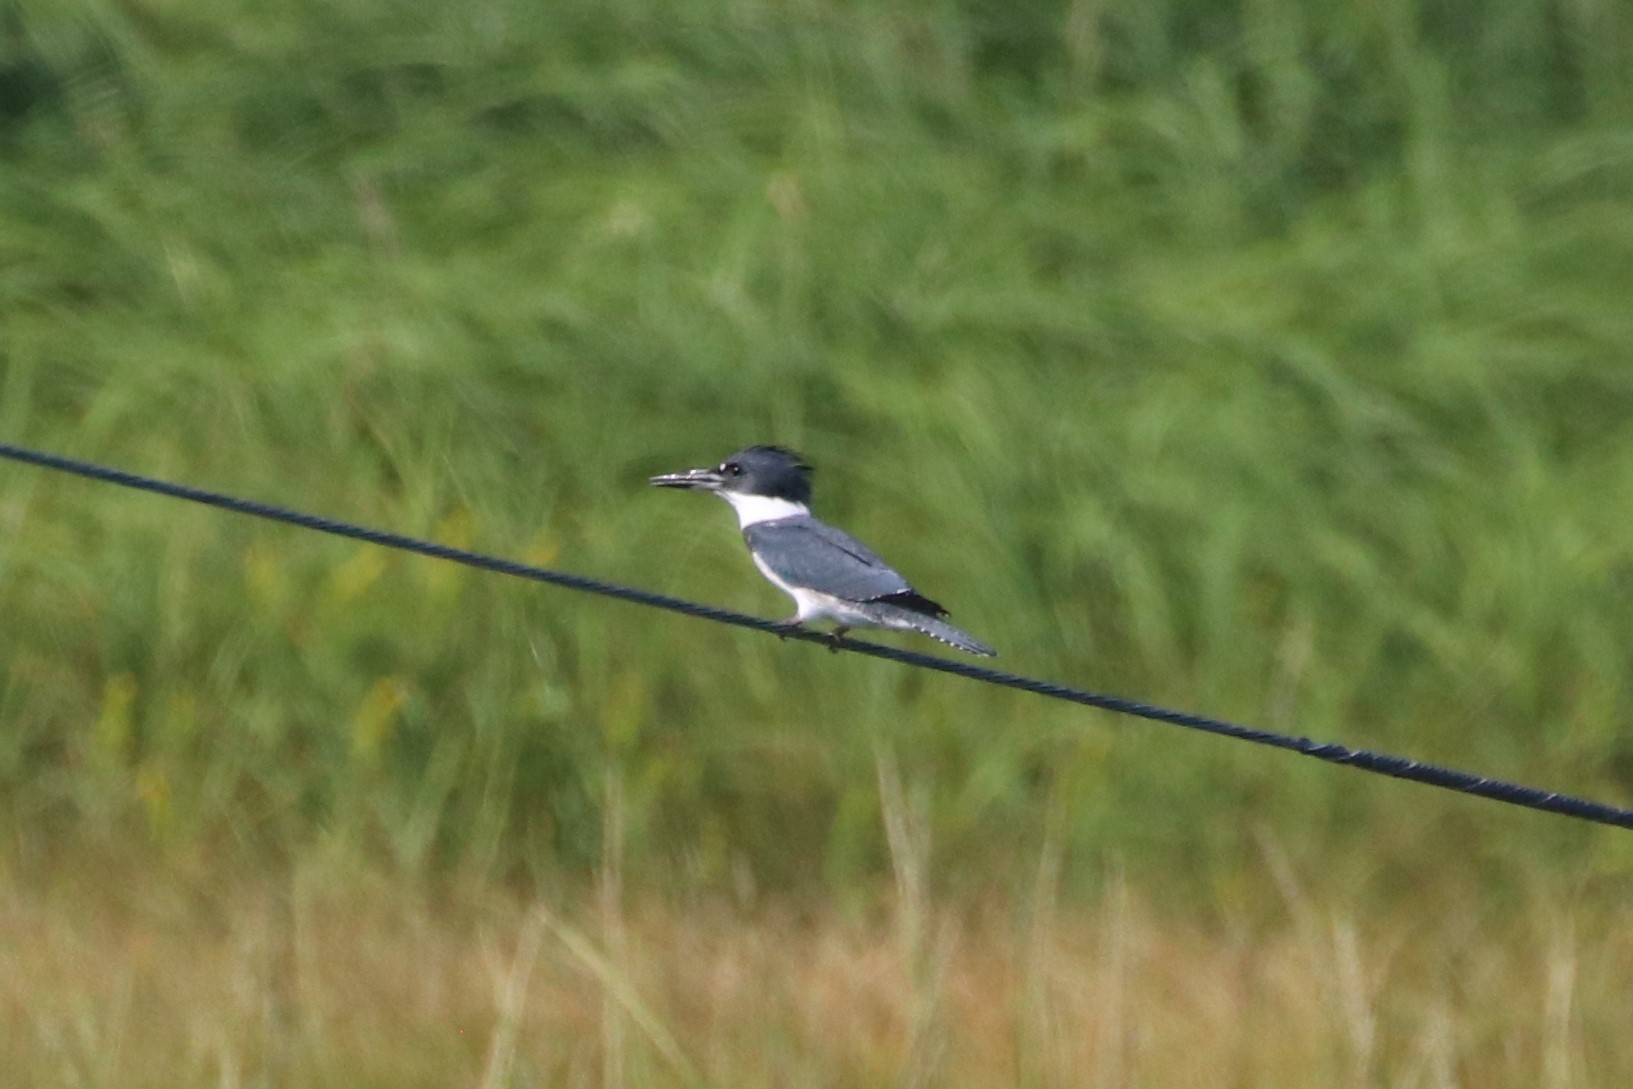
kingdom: Animalia
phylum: Chordata
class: Aves
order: Coraciiformes
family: Alcedinidae
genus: Megaceryle
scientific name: Megaceryle alcyon
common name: Belted kingfisher
